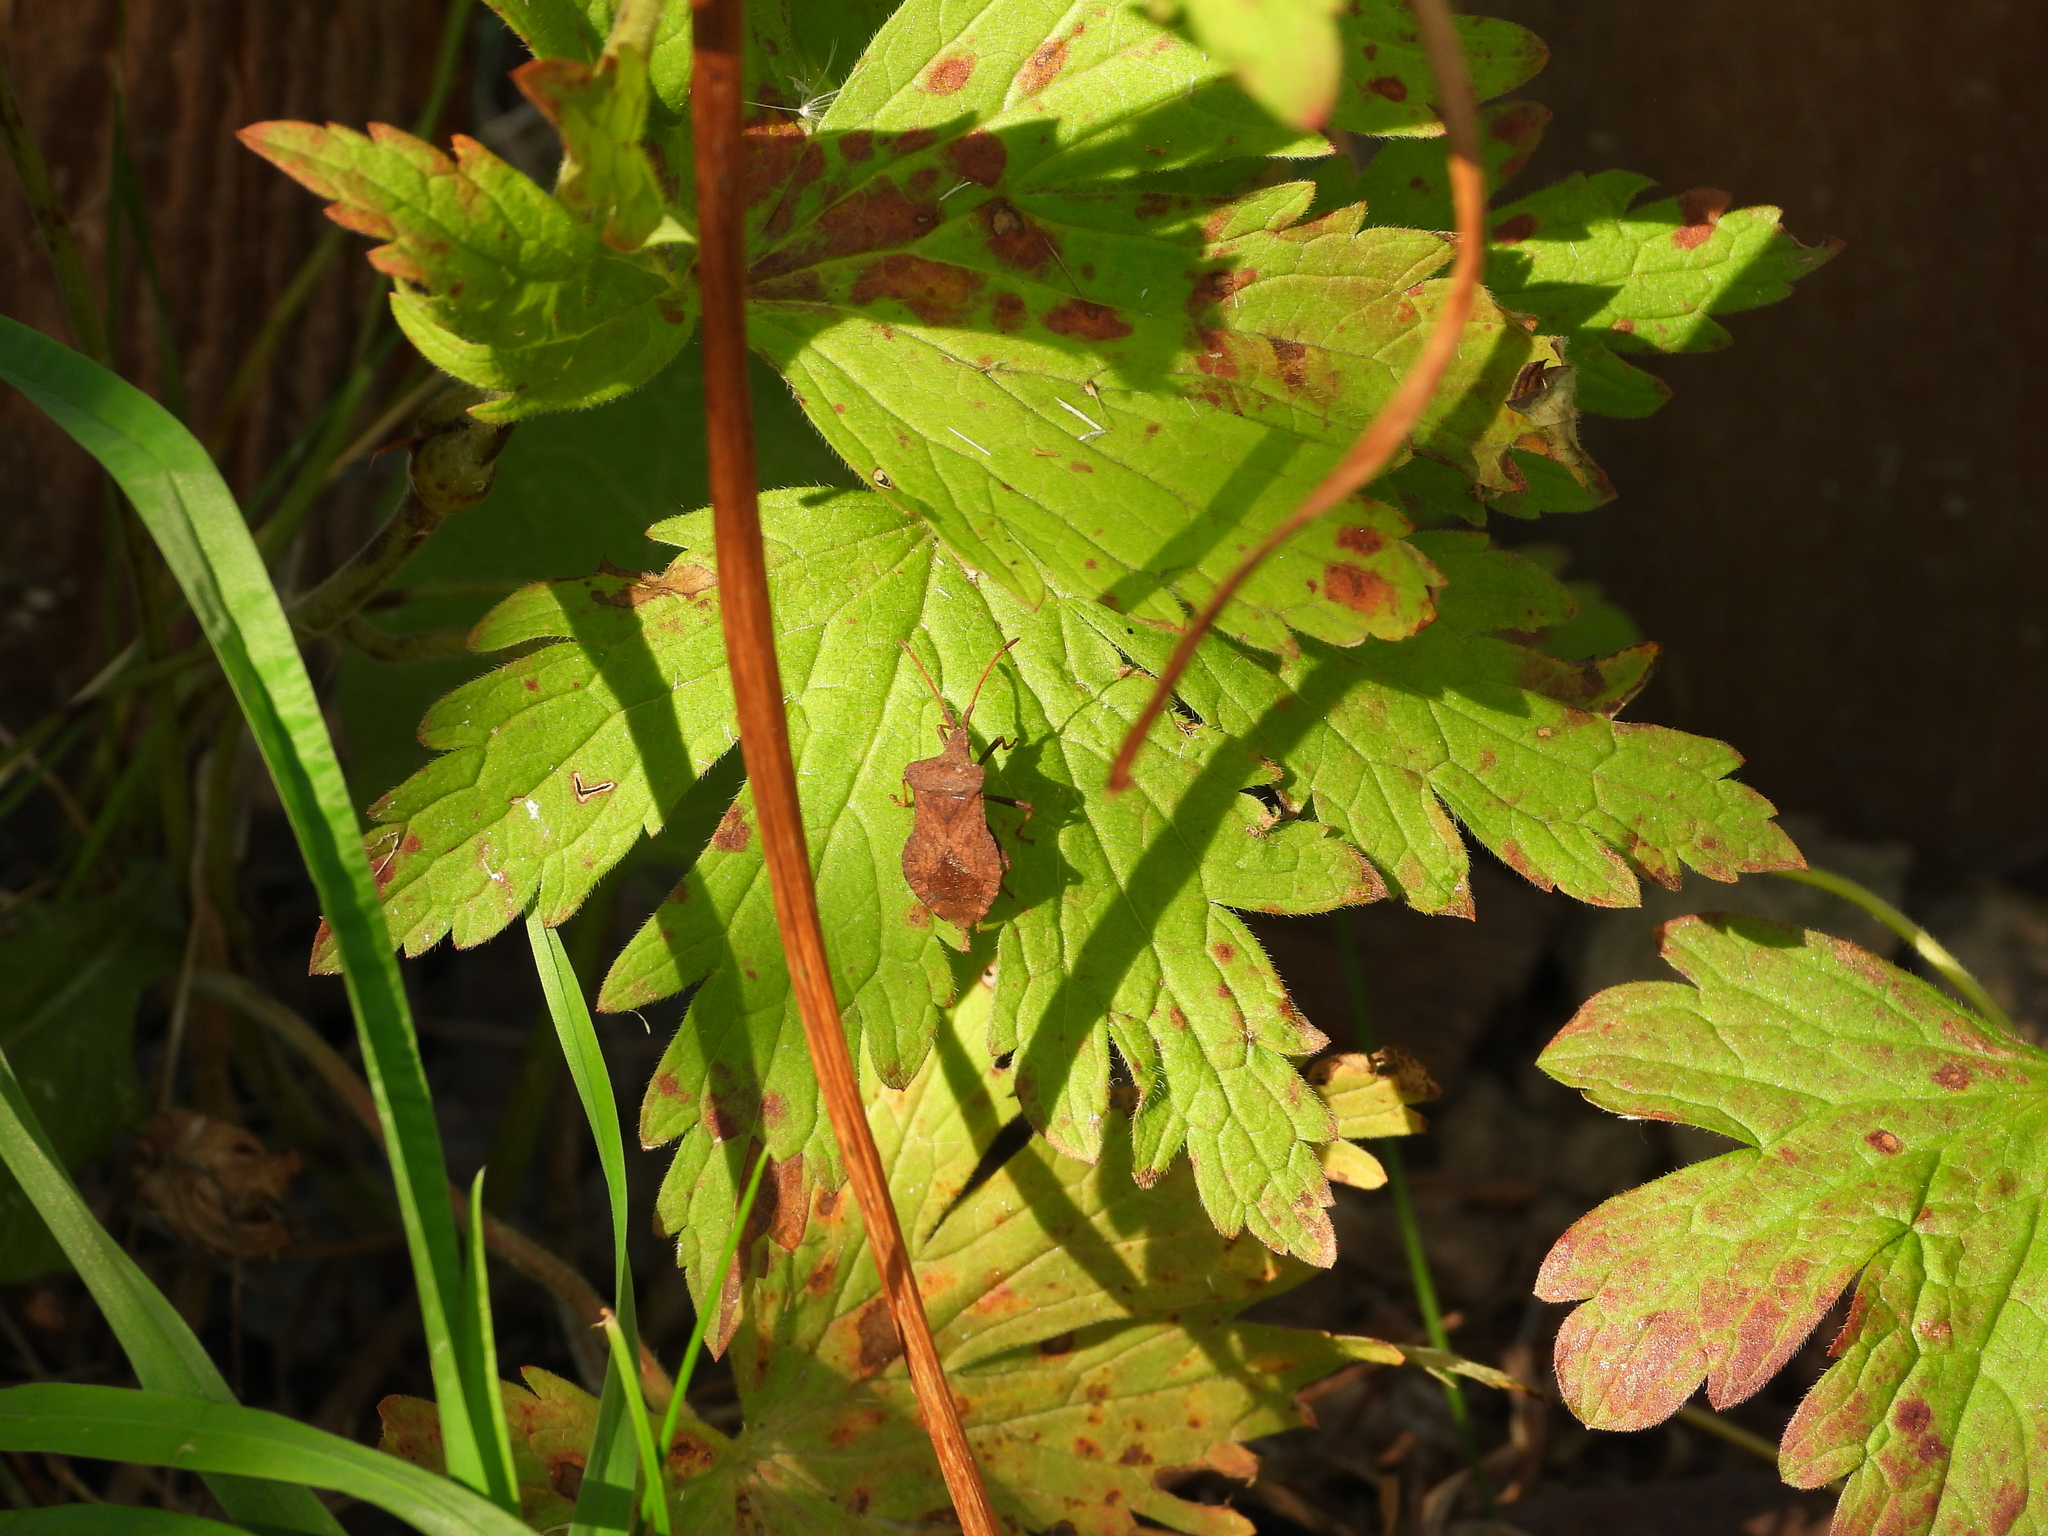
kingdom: Animalia
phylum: Arthropoda
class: Insecta
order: Hemiptera
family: Coreidae
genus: Coreus
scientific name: Coreus marginatus
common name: Dock bug
